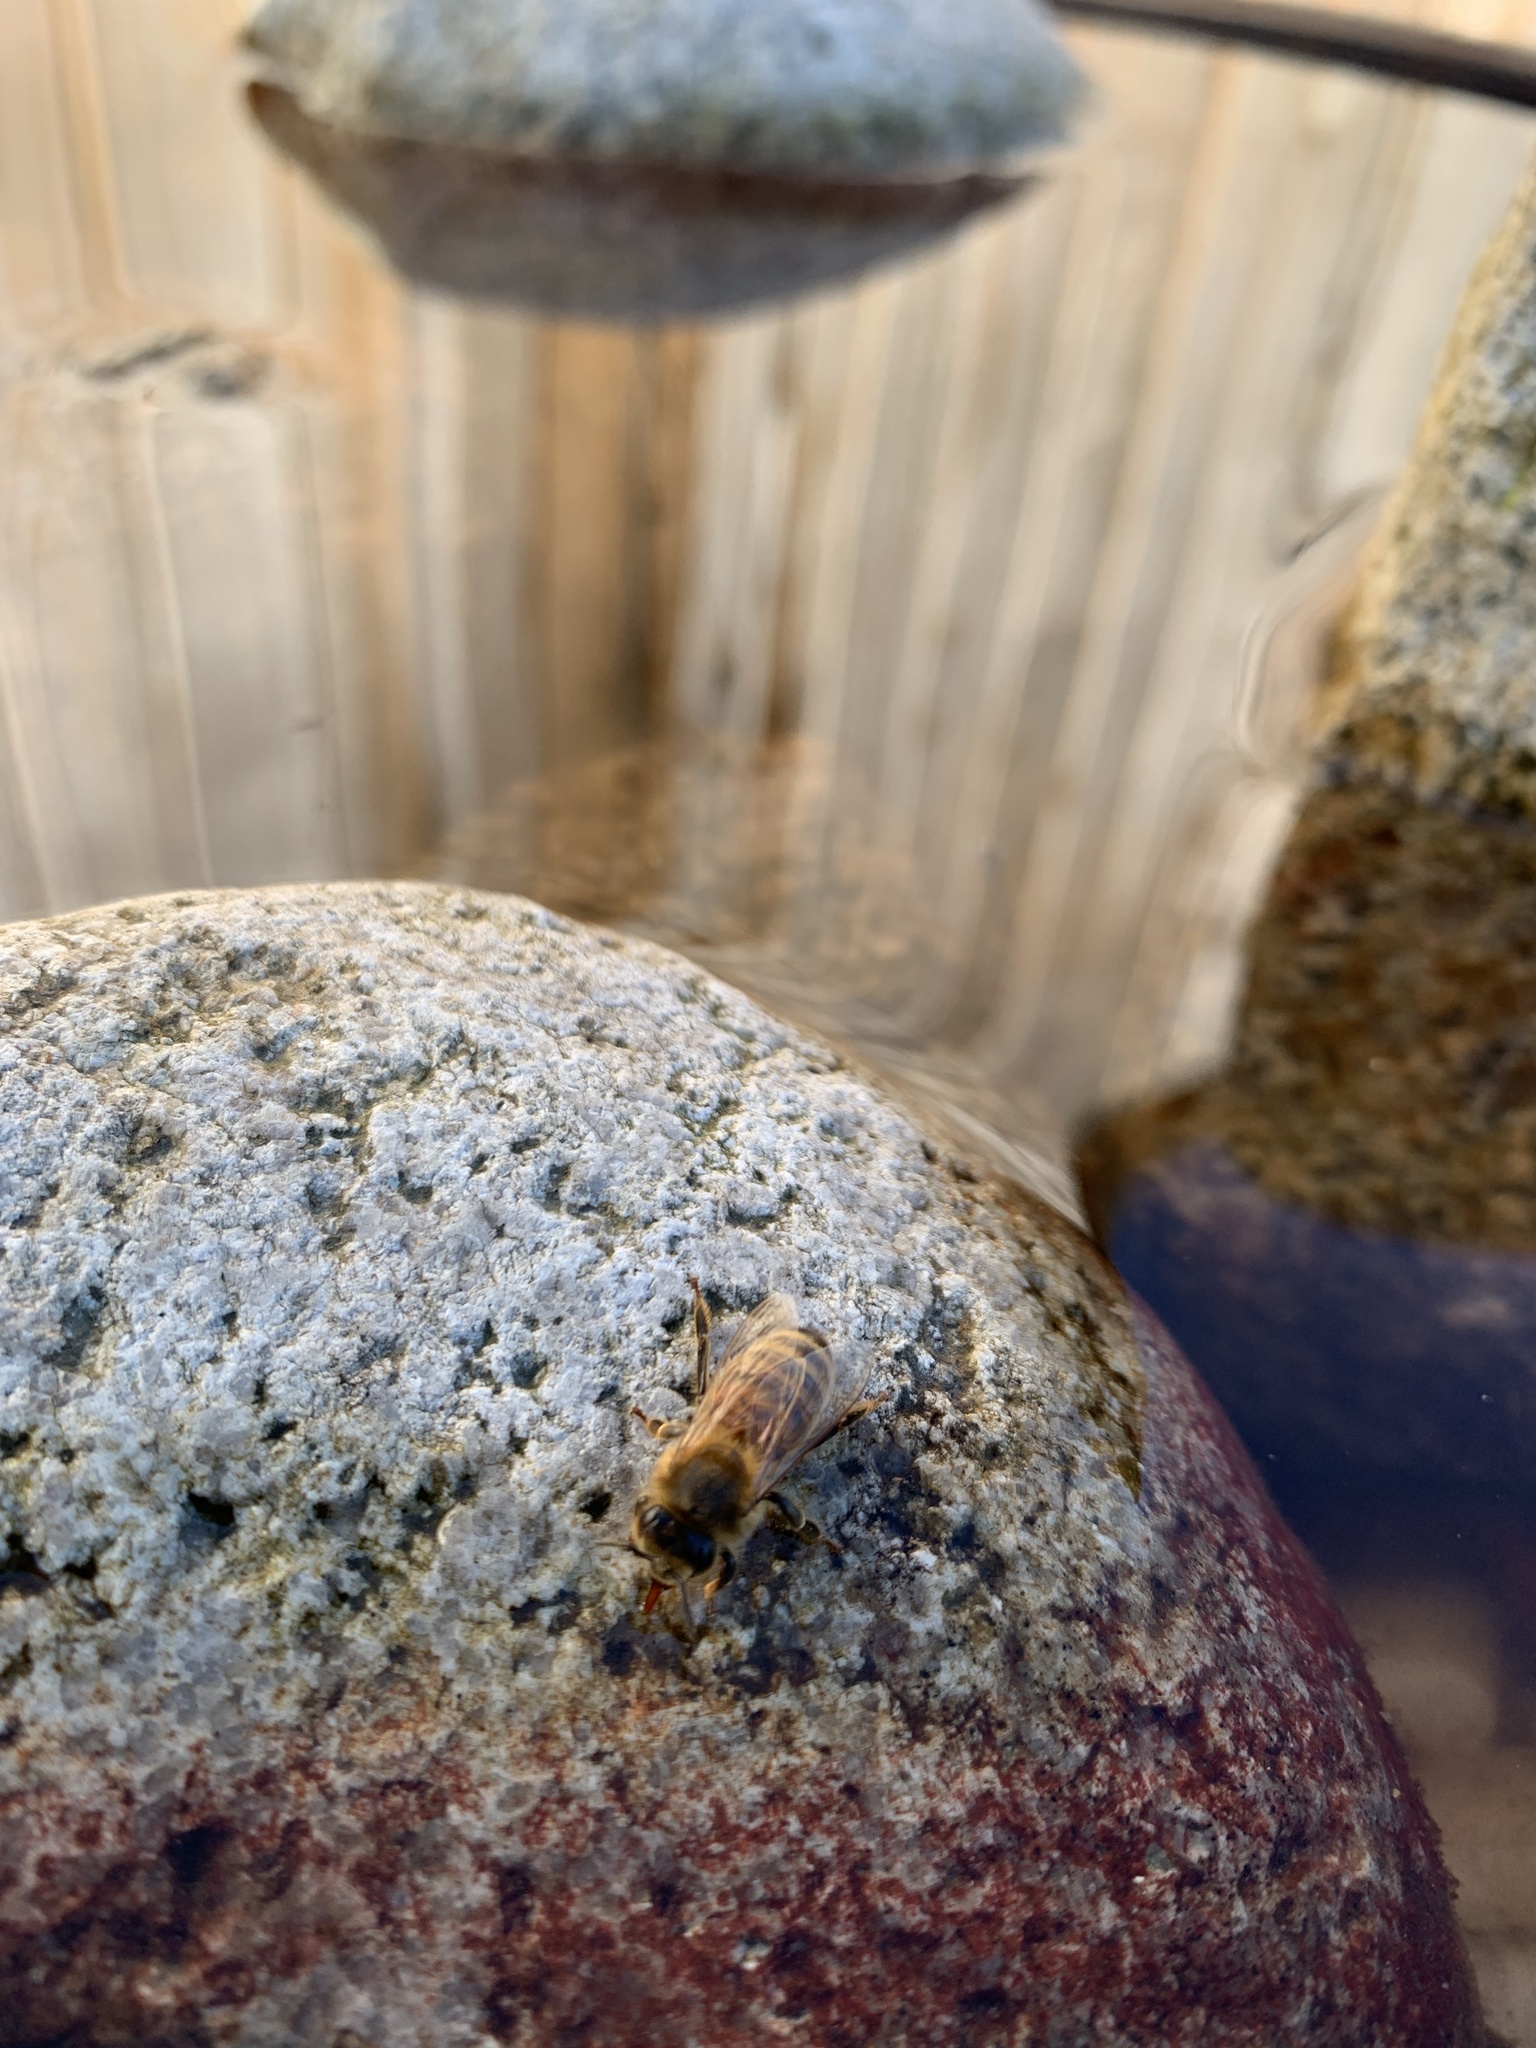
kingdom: Animalia
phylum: Arthropoda
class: Insecta
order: Hymenoptera
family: Apidae
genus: Apis
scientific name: Apis mellifera
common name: Honey bee
